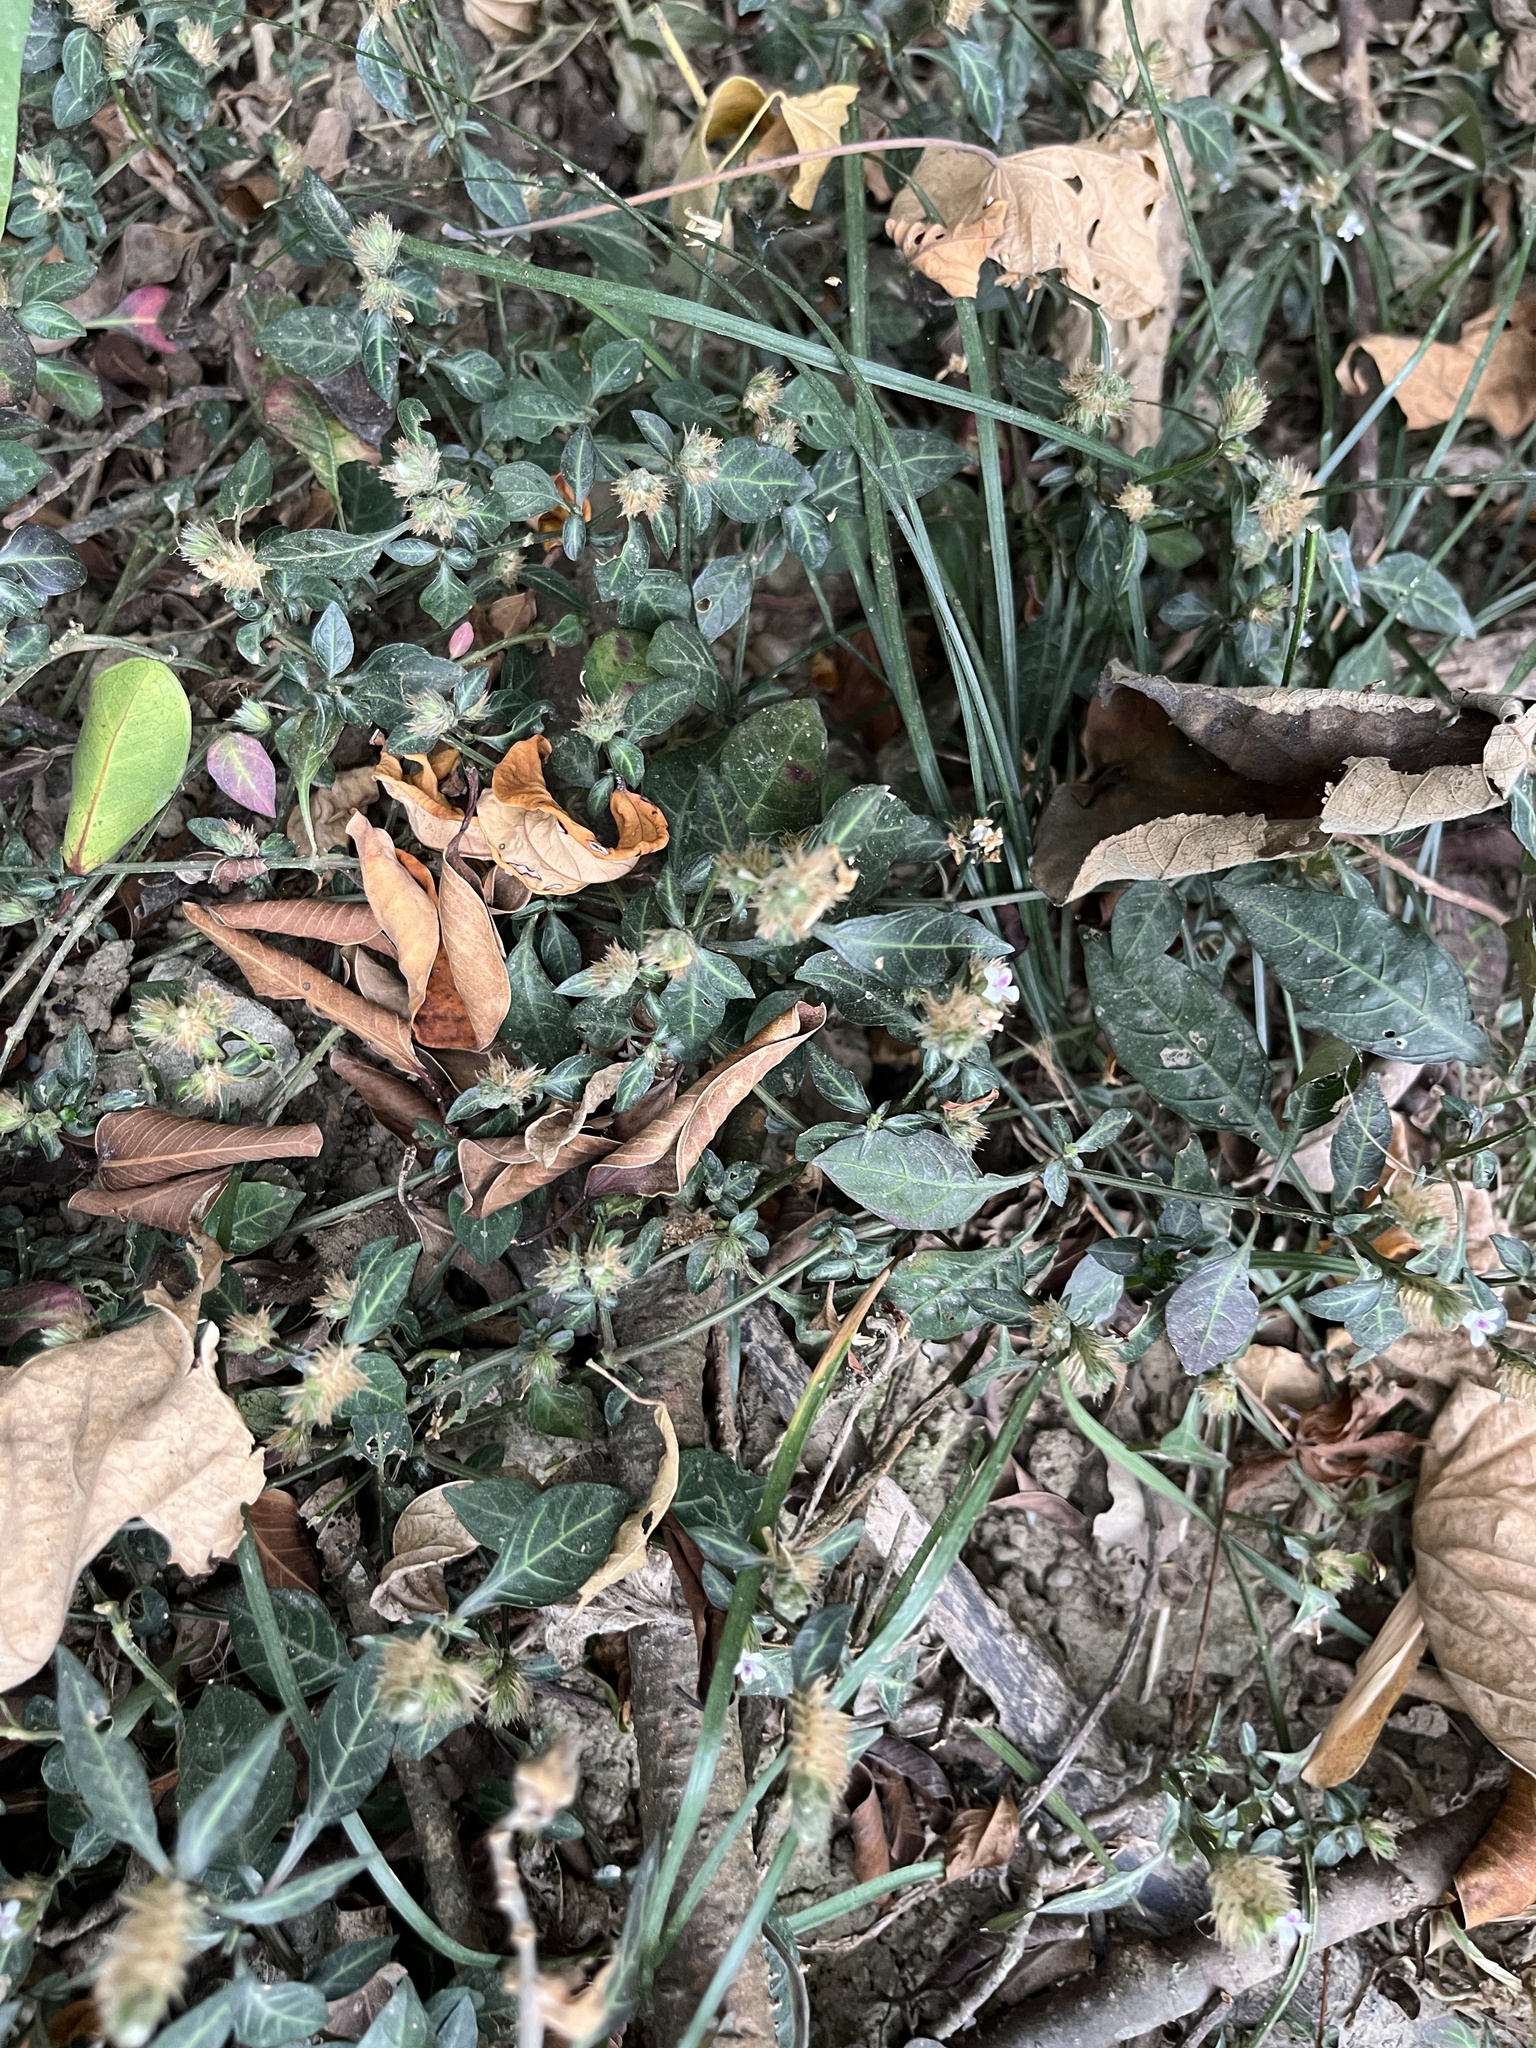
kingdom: Plantae
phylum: Tracheophyta
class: Magnoliopsida
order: Lamiales
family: Acanthaceae
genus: Lepidagathis
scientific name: Lepidagathis inaequalis
